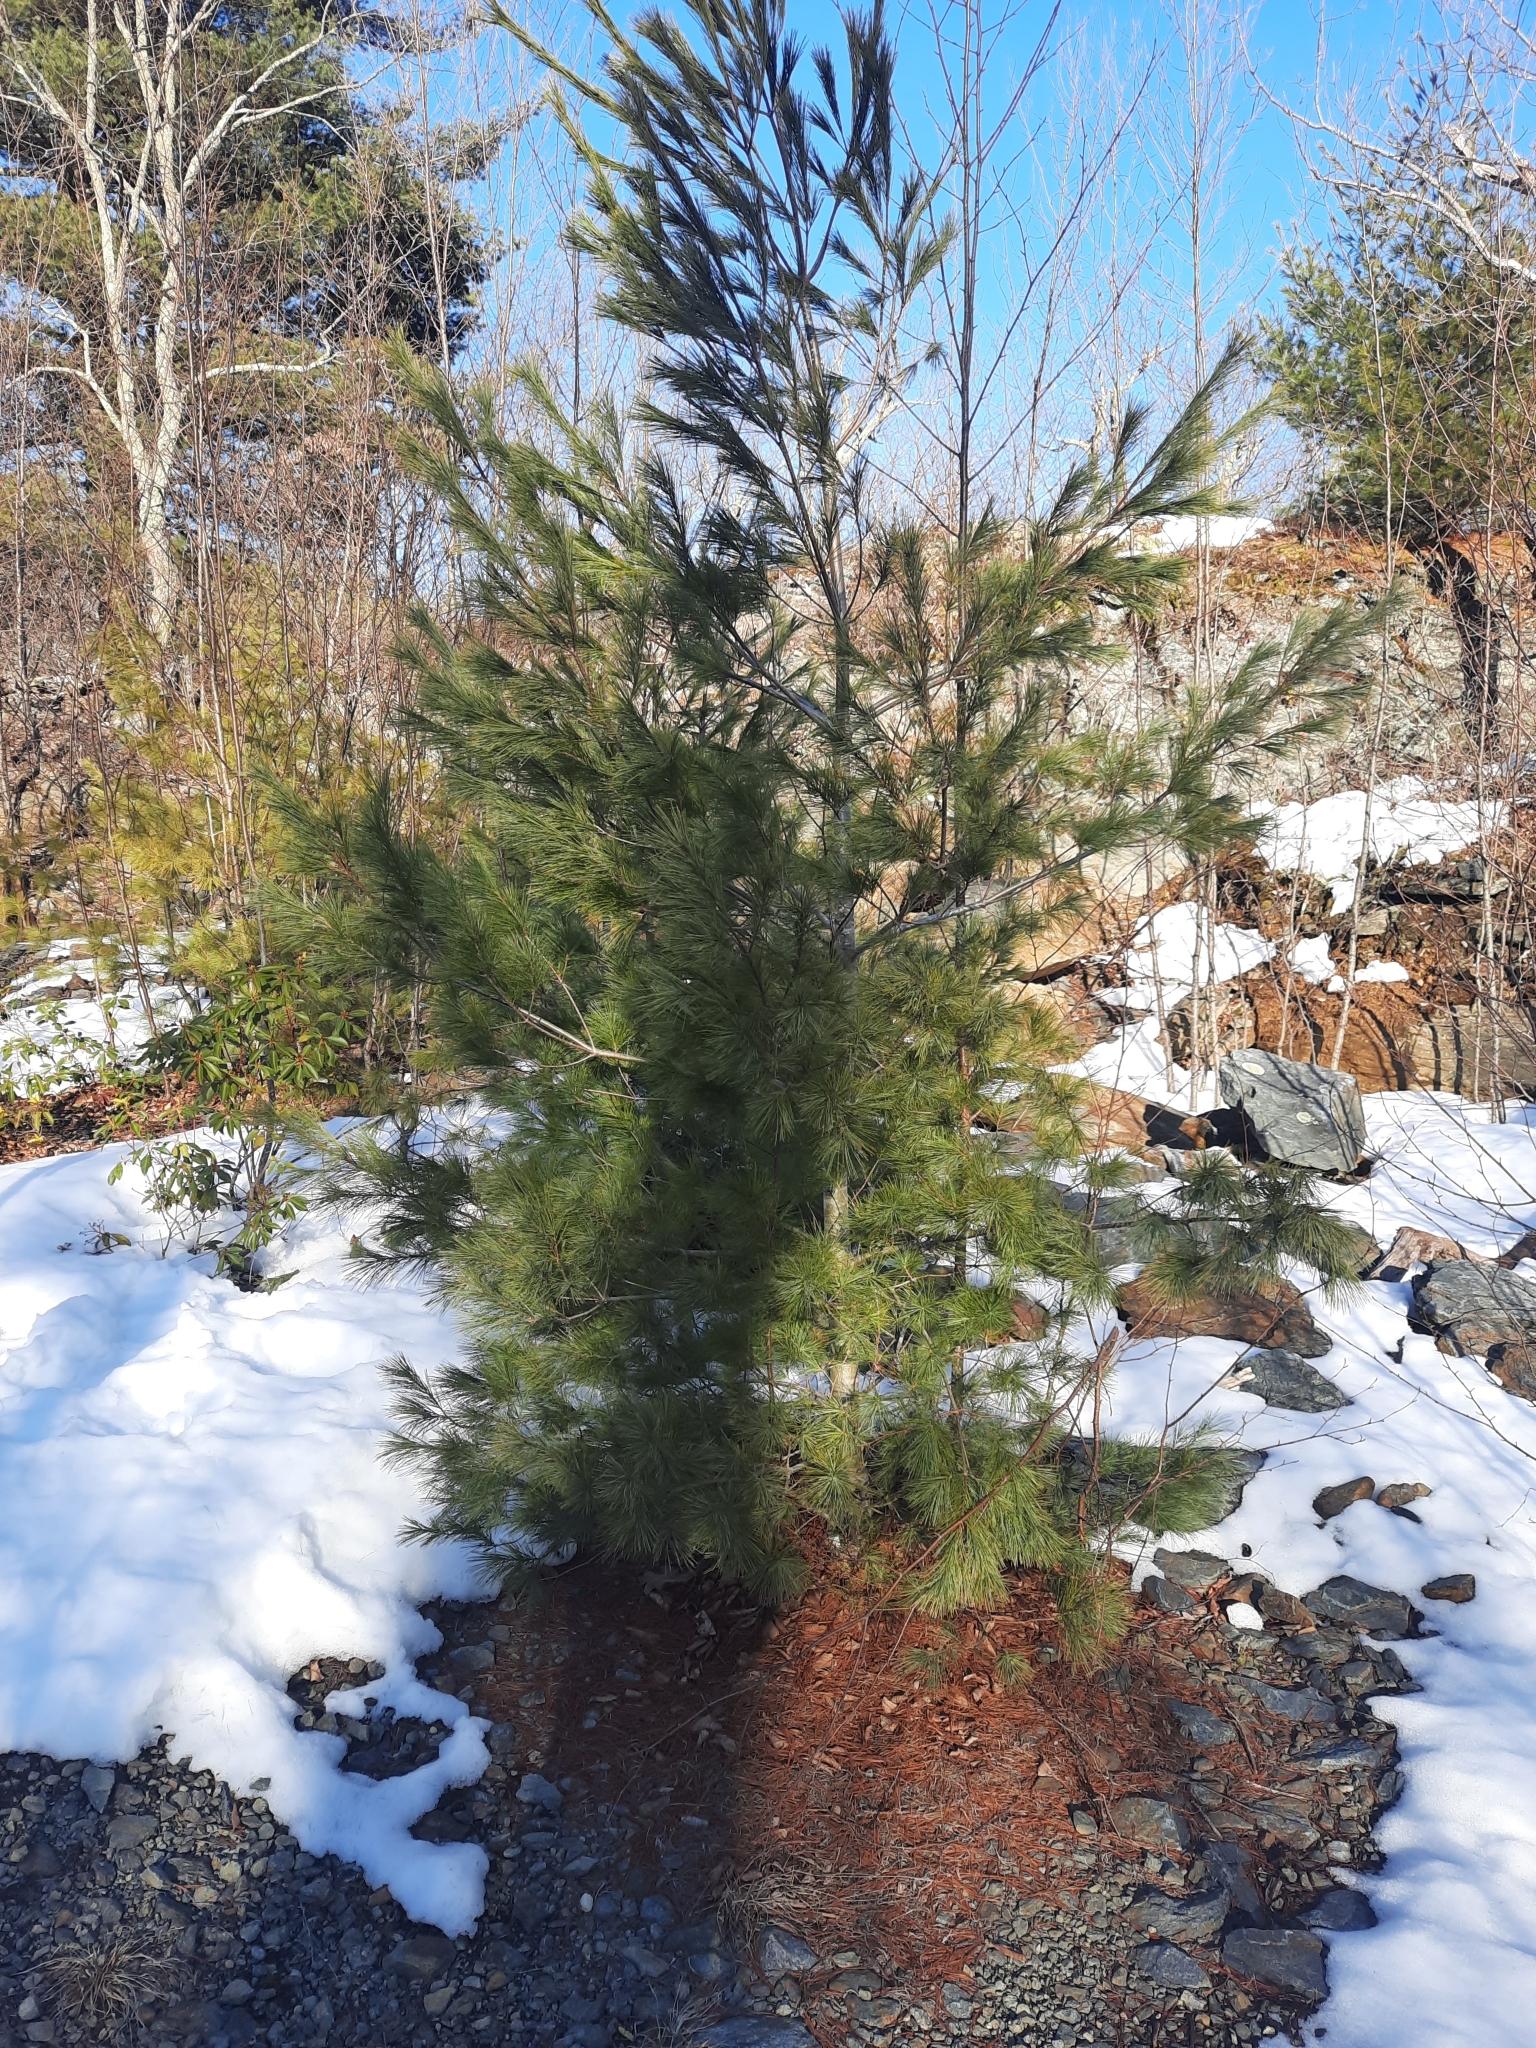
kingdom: Plantae
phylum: Tracheophyta
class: Pinopsida
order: Pinales
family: Pinaceae
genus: Pinus
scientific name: Pinus strobus
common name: Weymouth pine
